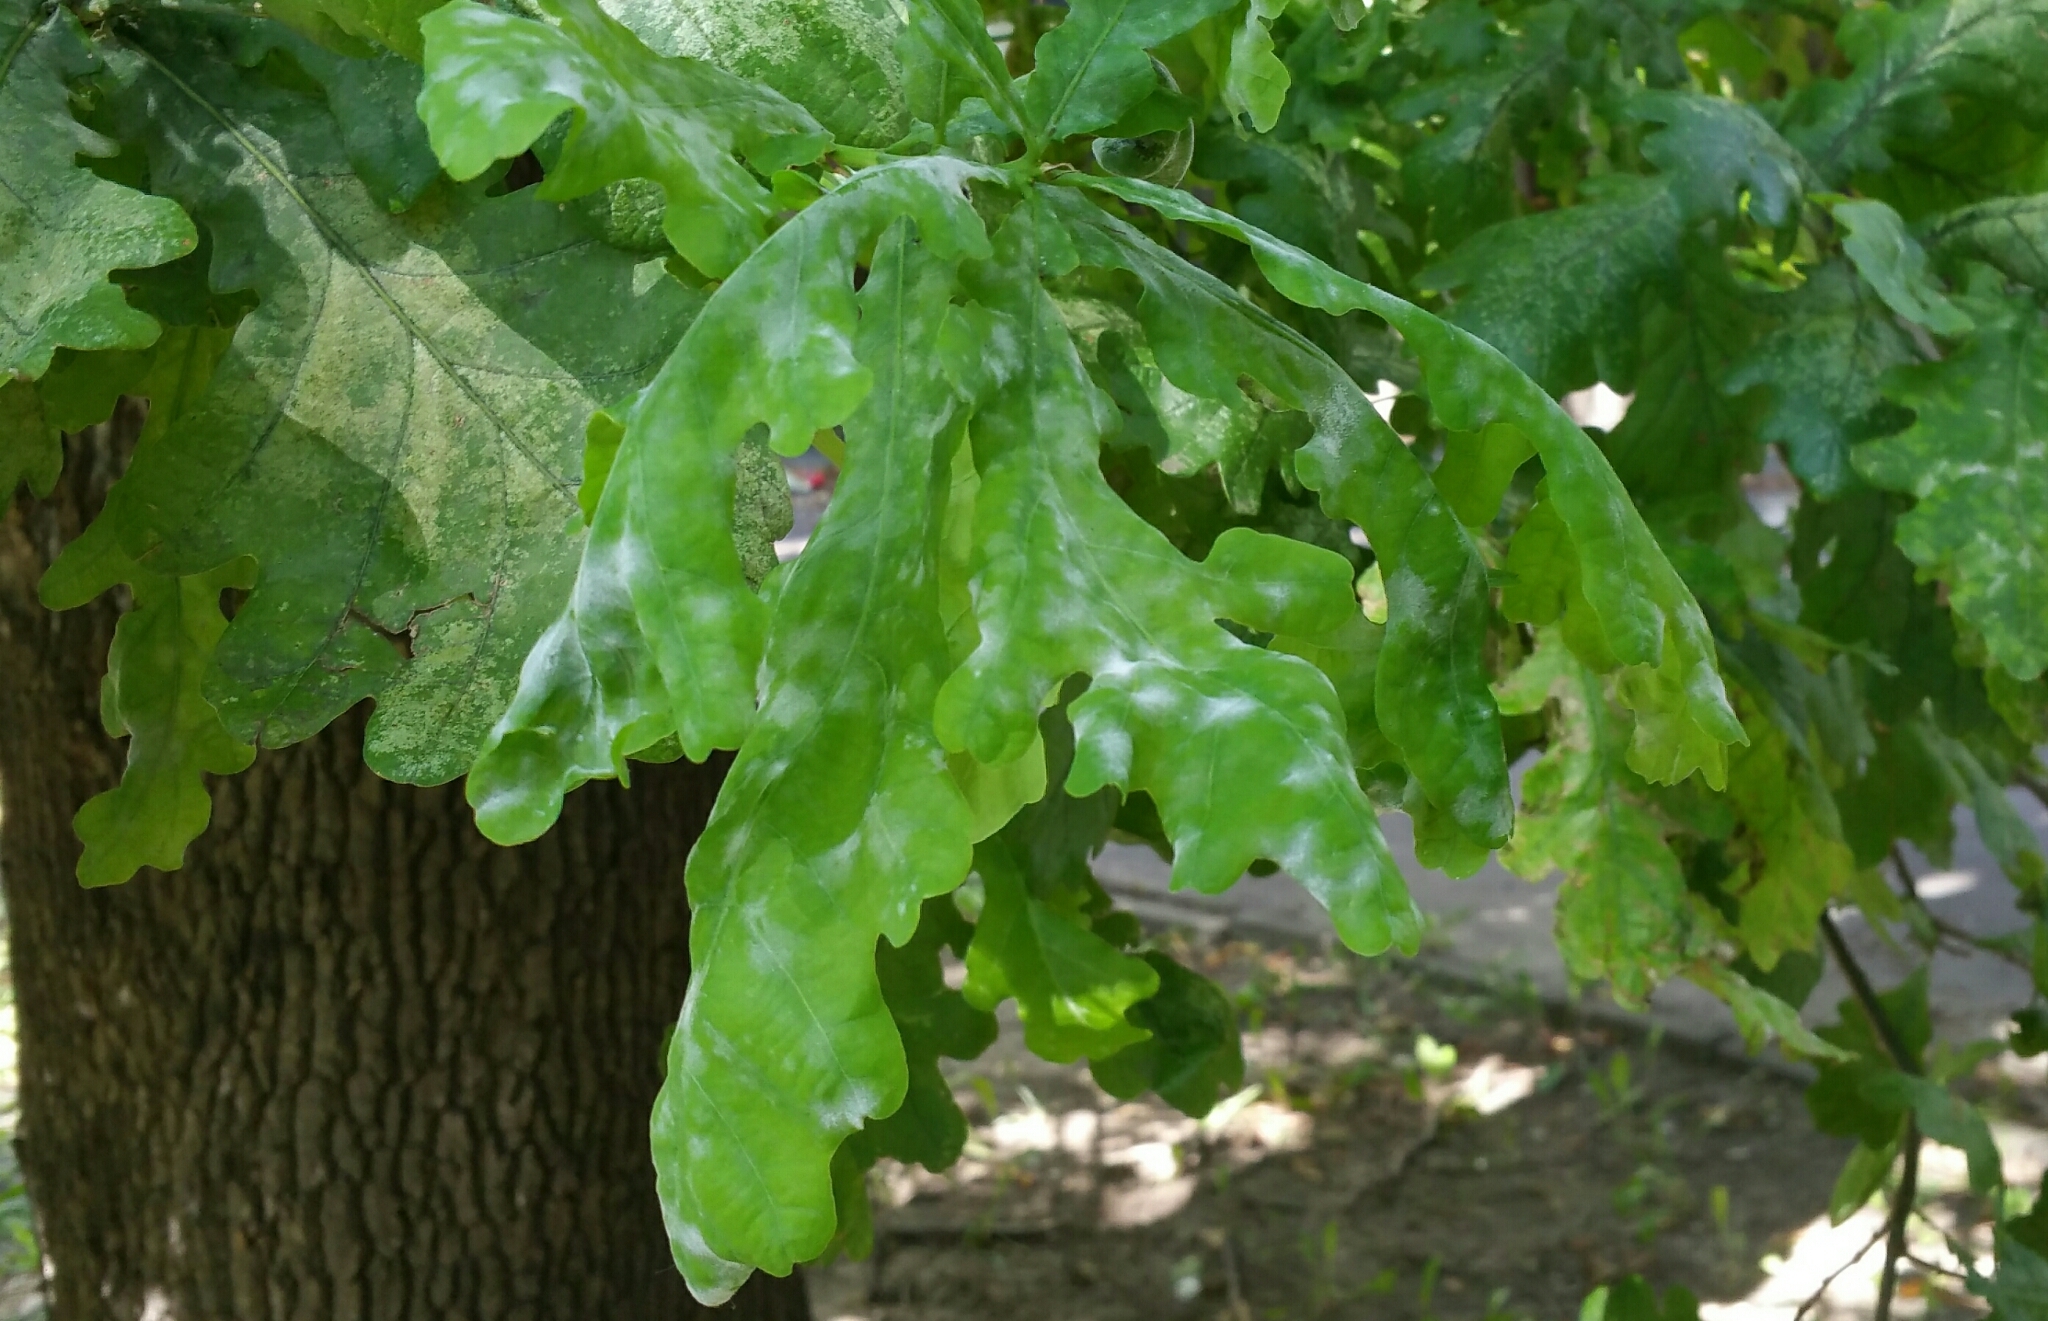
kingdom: Fungi
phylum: Ascomycota
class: Leotiomycetes
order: Helotiales
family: Erysiphaceae
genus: Erysiphe
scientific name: Erysiphe alphitoides
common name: Oak mildew
